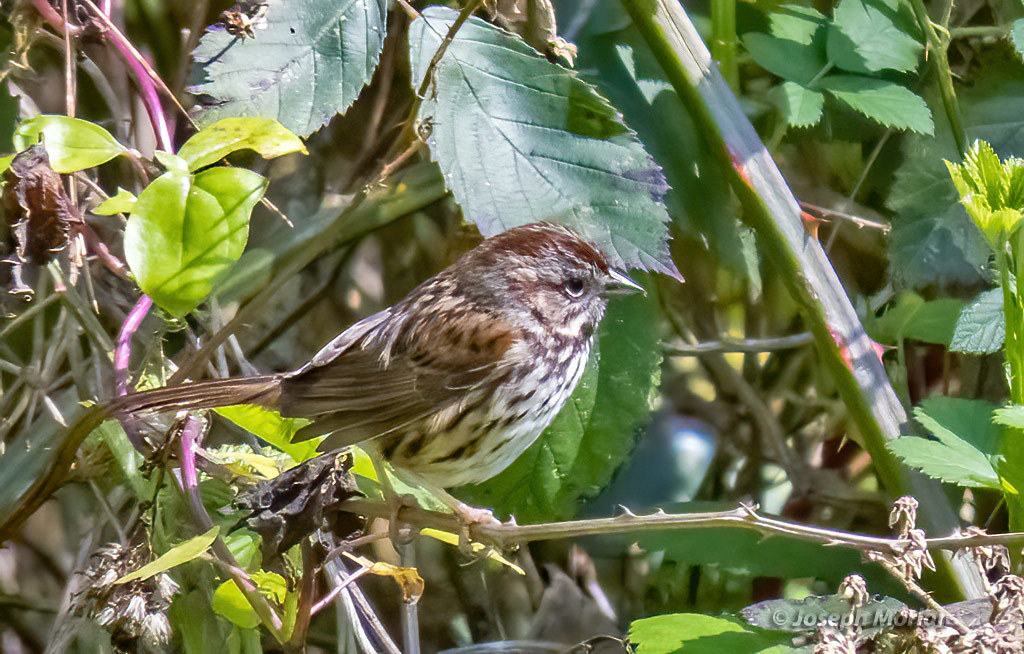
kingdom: Animalia
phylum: Chordata
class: Aves
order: Passeriformes
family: Passerellidae
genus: Melospiza
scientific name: Melospiza melodia
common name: Song sparrow
